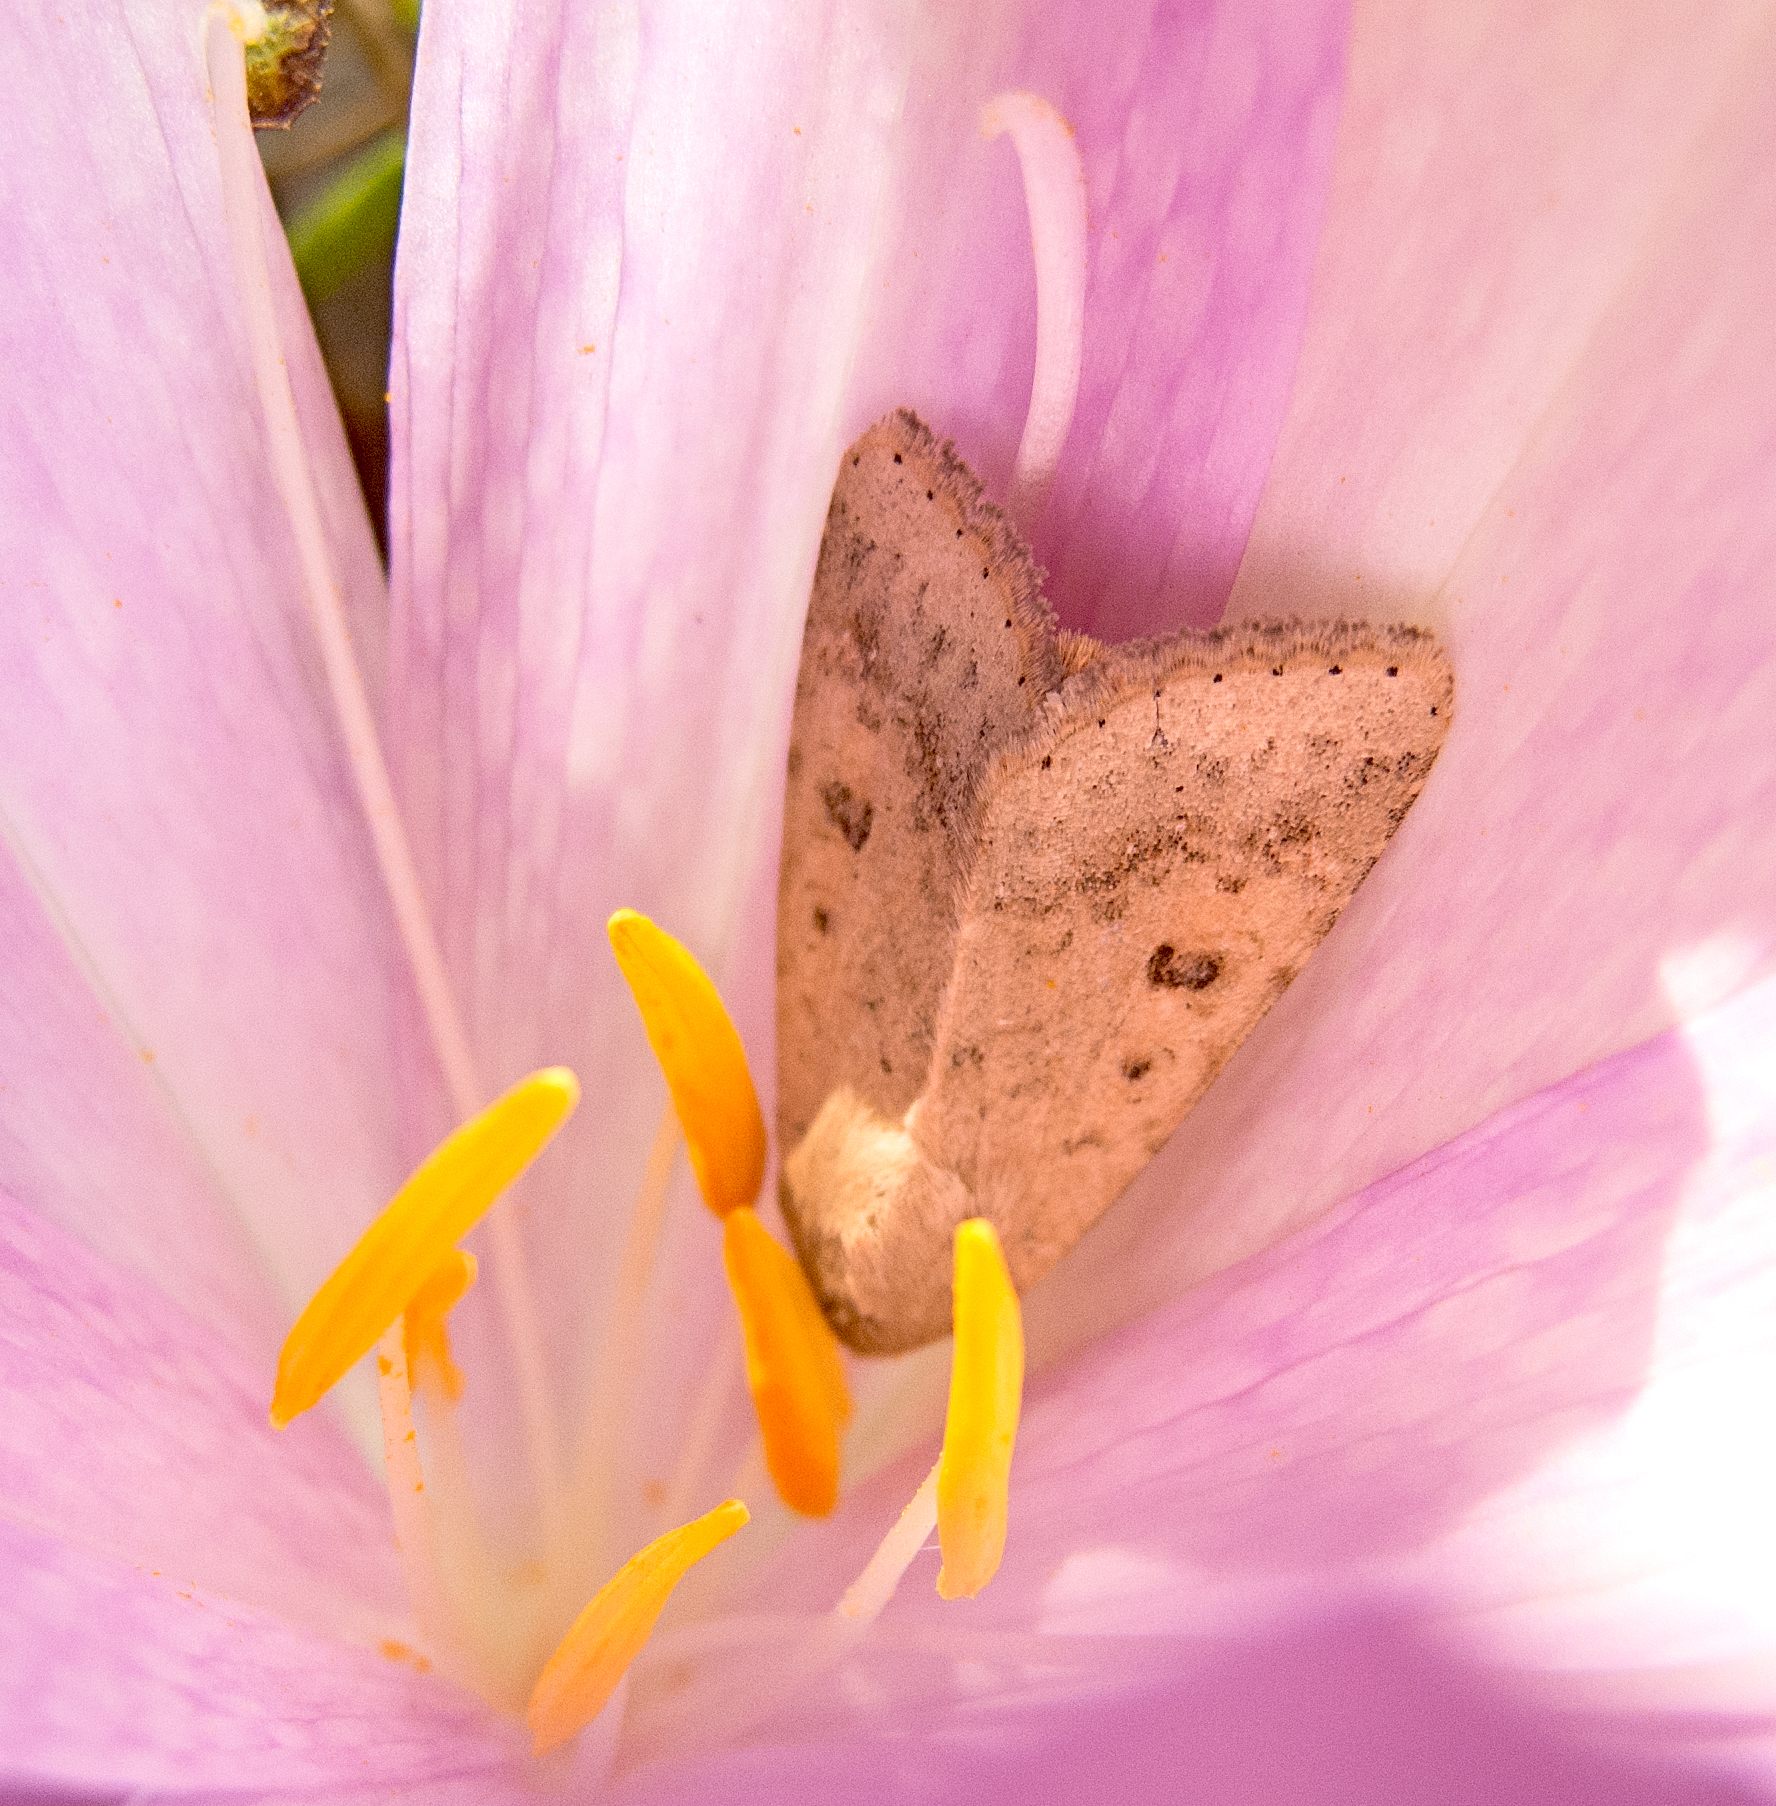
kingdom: Animalia
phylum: Arthropoda
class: Insecta
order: Lepidoptera
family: Noctuidae
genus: Helicoverpa
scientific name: Helicoverpa armigera
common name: Cotton bollworm
